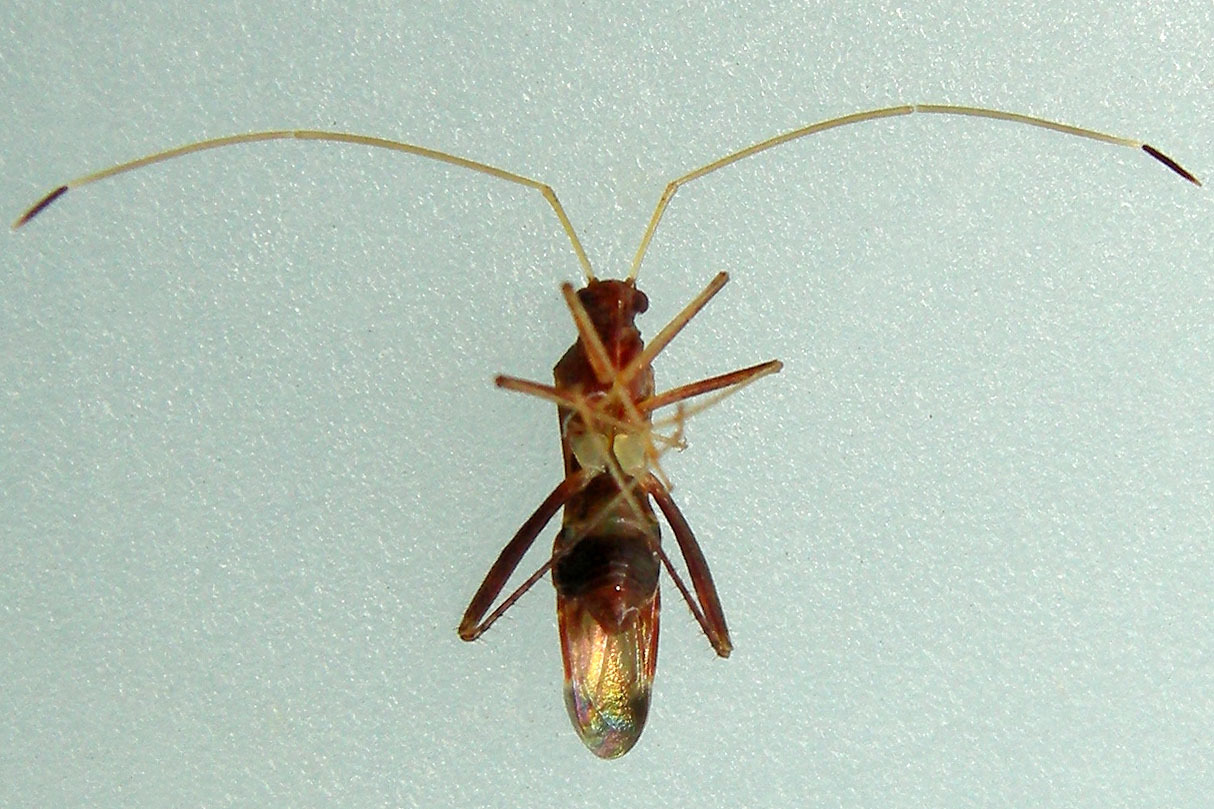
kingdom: Animalia
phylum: Arthropoda
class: Insecta
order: Hemiptera
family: Miridae
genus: Paraxenetus
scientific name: Paraxenetus guttulatus
